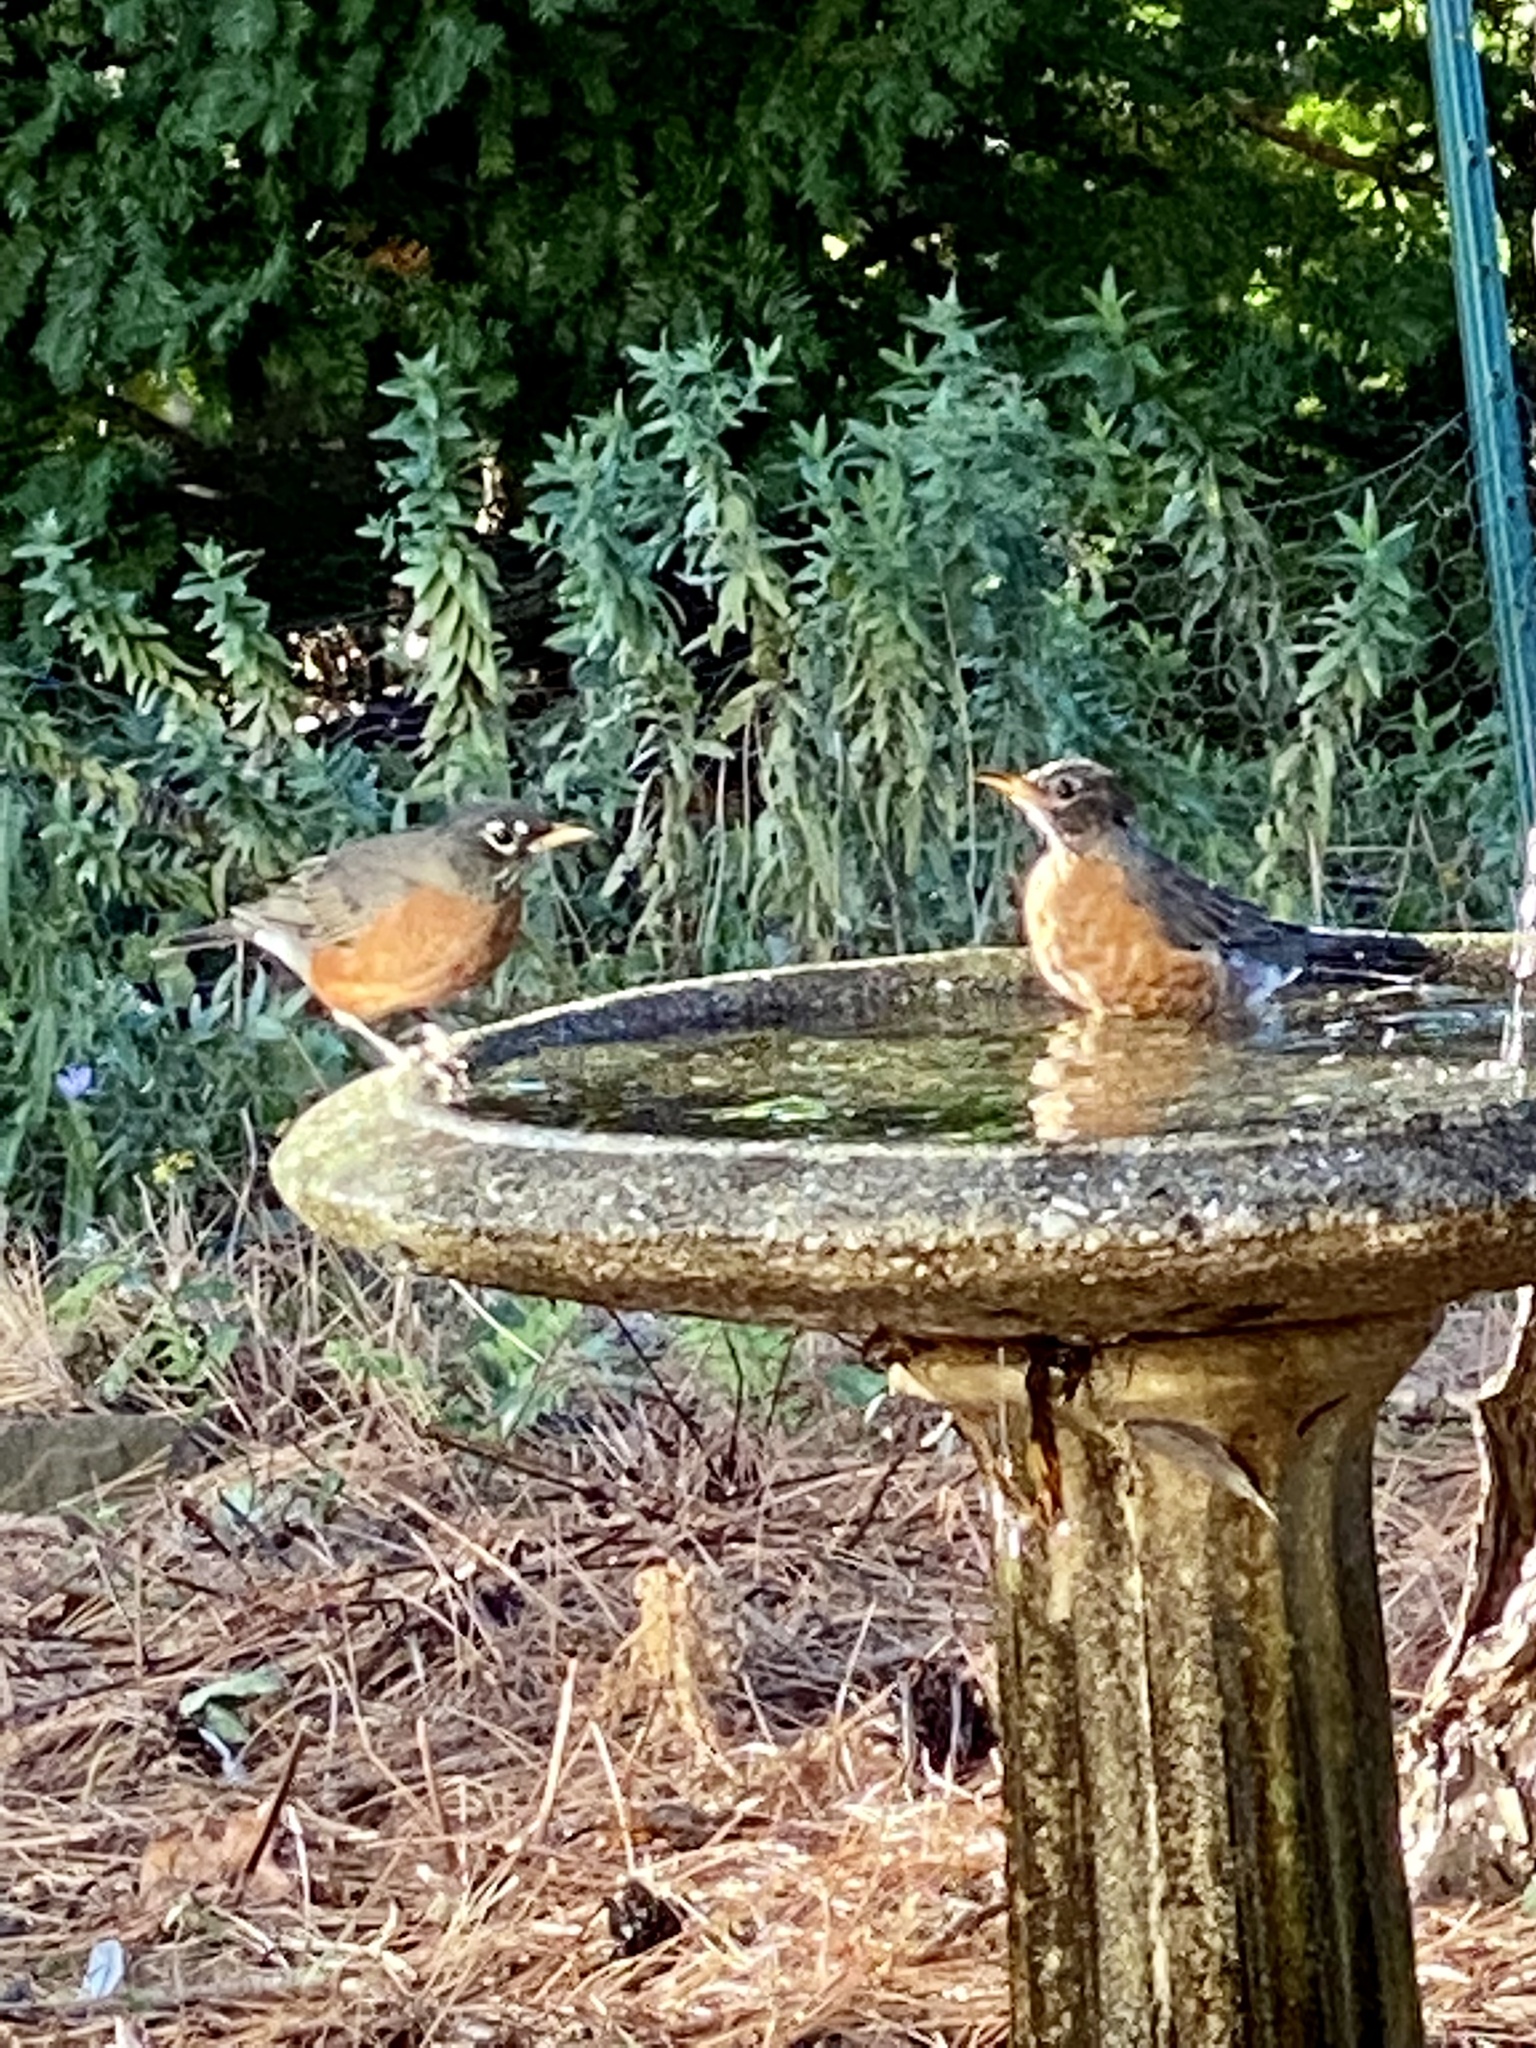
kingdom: Animalia
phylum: Chordata
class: Aves
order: Passeriformes
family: Turdidae
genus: Turdus
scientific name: Turdus migratorius
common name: American robin
